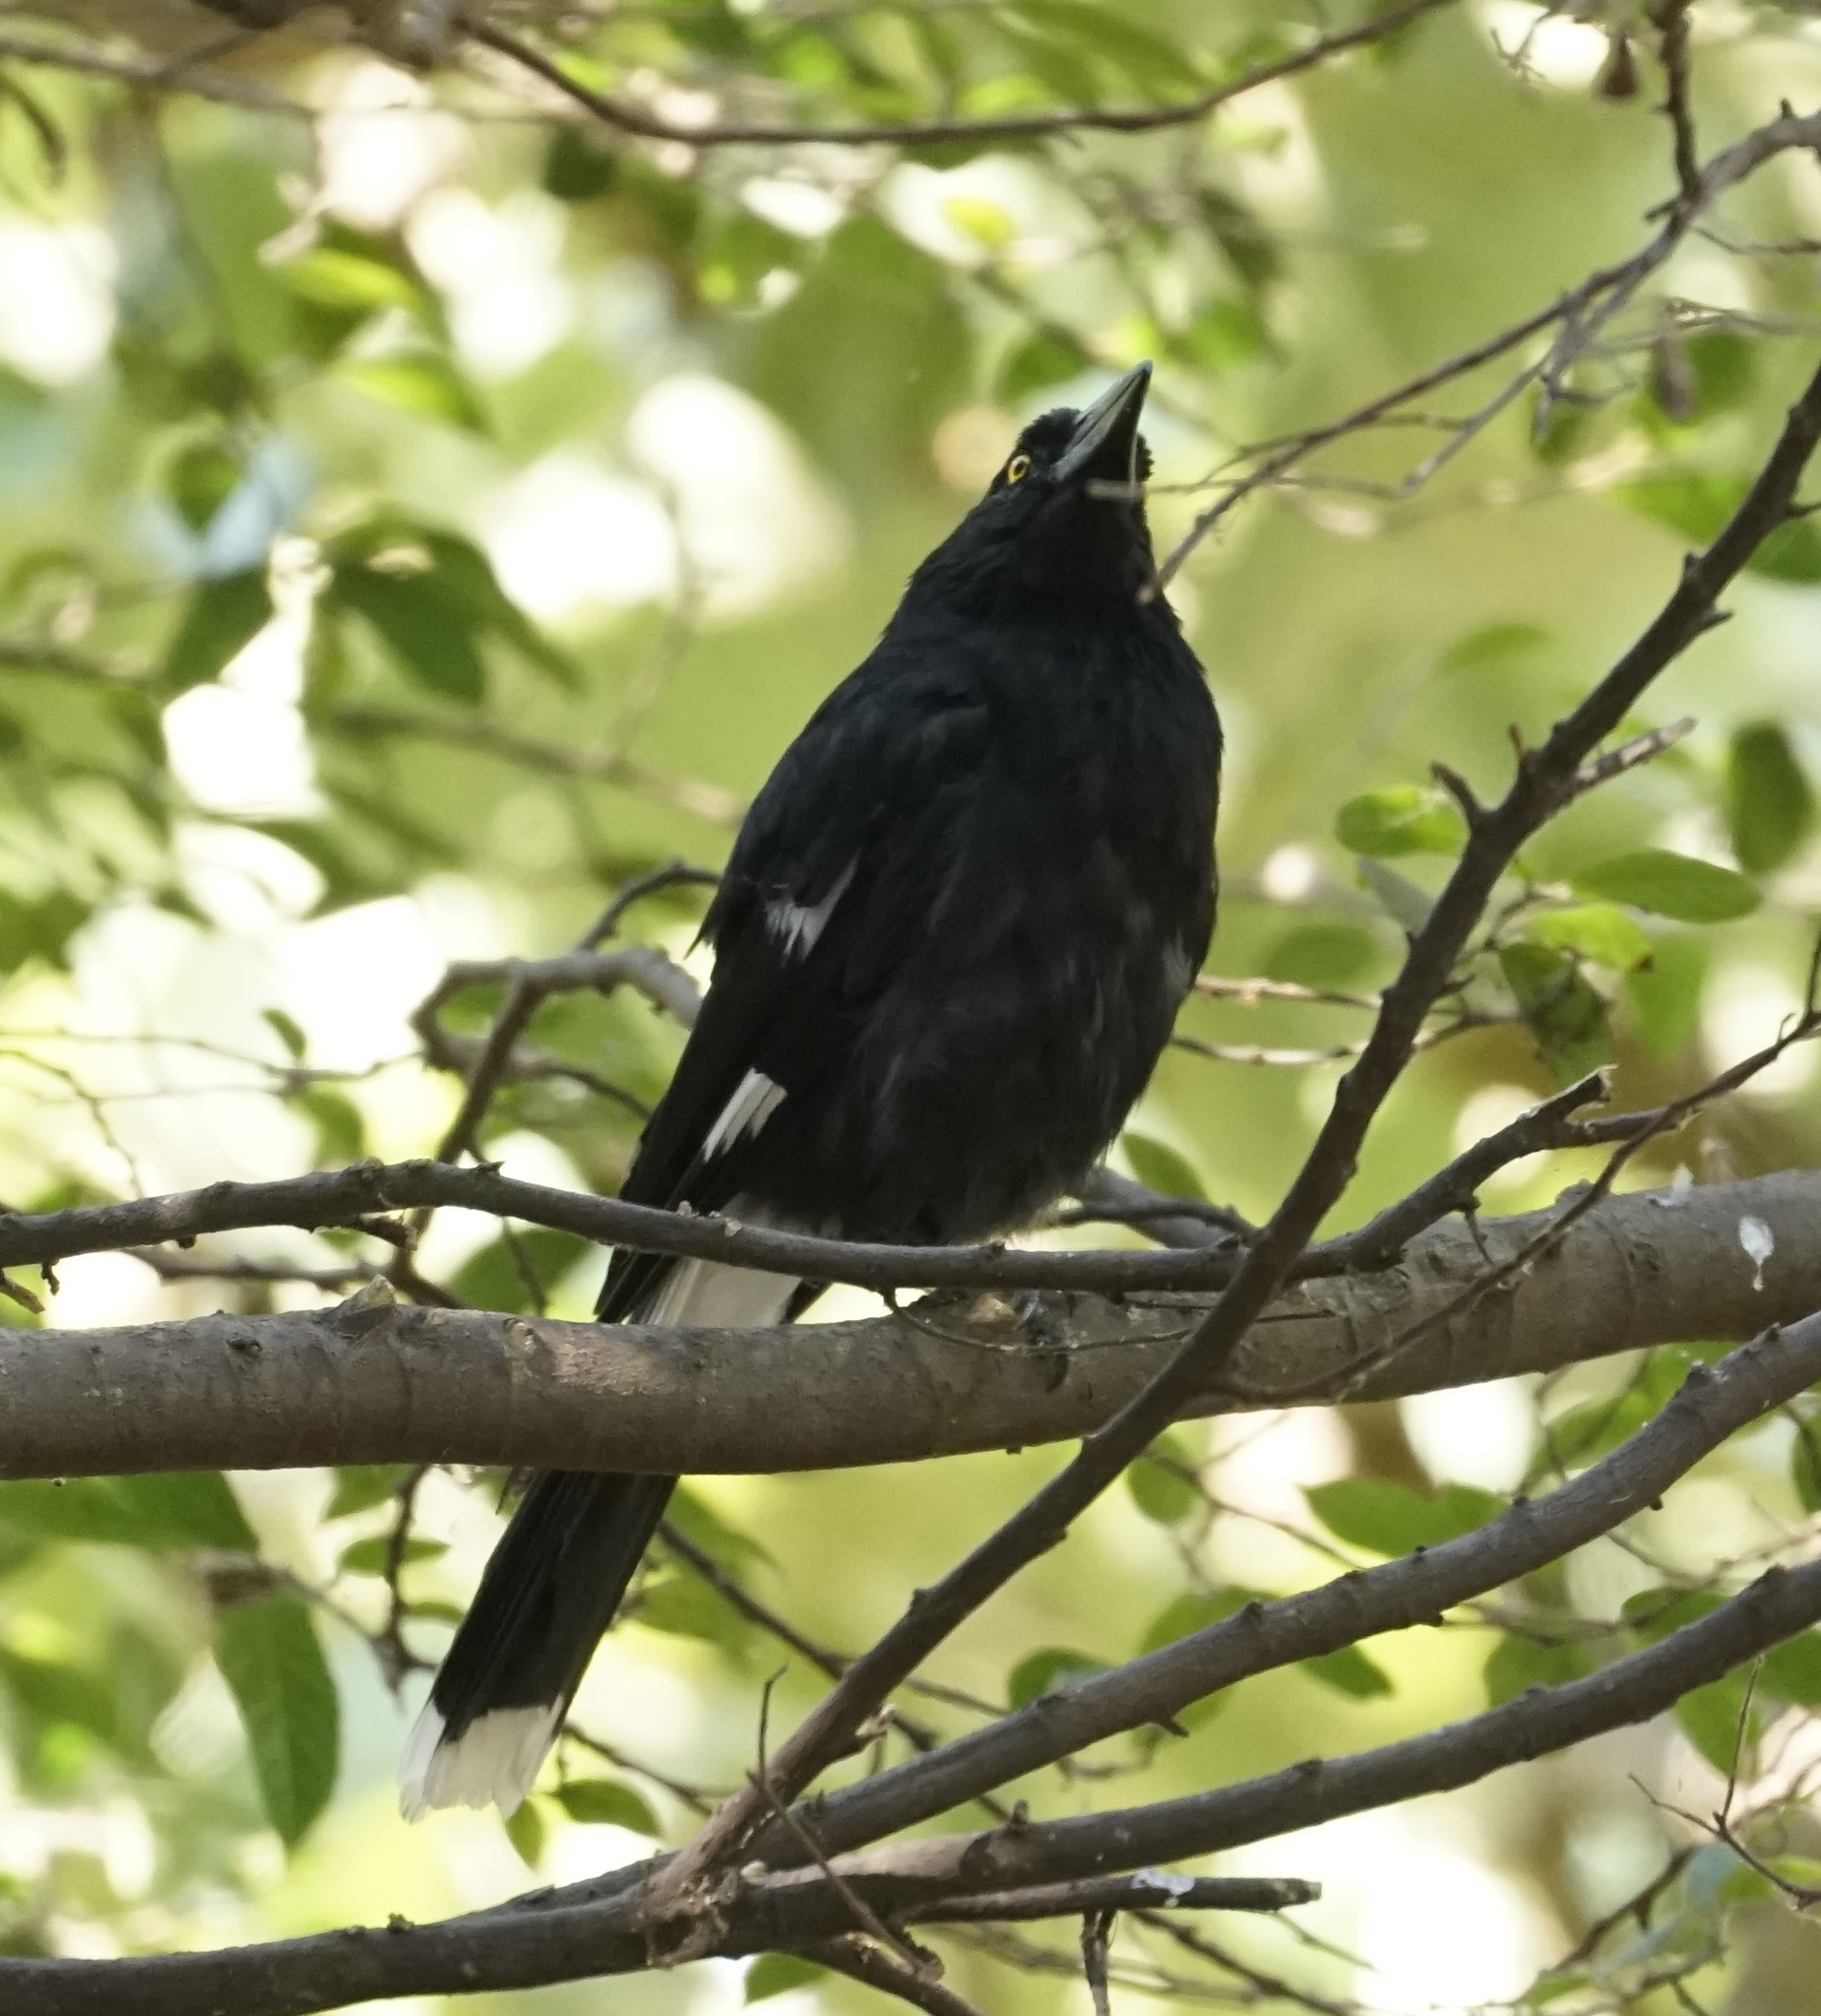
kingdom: Animalia
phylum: Chordata
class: Aves
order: Passeriformes
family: Cracticidae
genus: Strepera
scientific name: Strepera graculina
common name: Pied currawong
